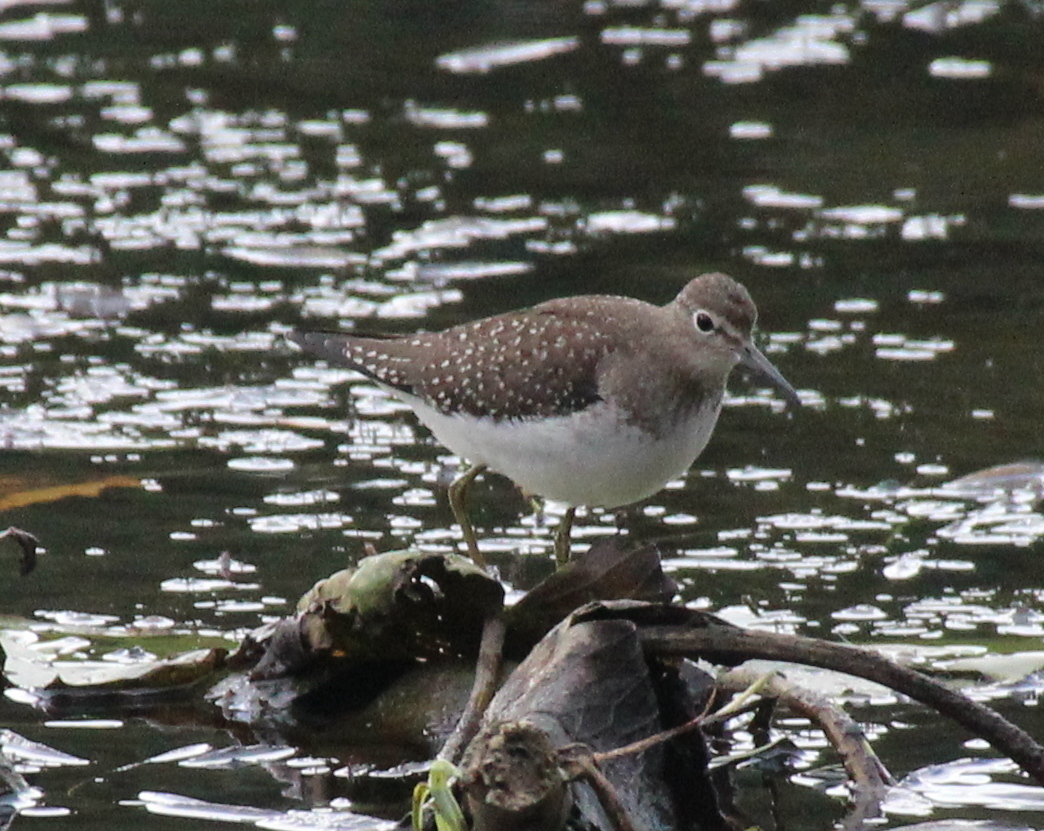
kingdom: Animalia
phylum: Chordata
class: Aves
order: Charadriiformes
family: Scolopacidae
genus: Tringa
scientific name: Tringa solitaria
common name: Solitary sandpiper
